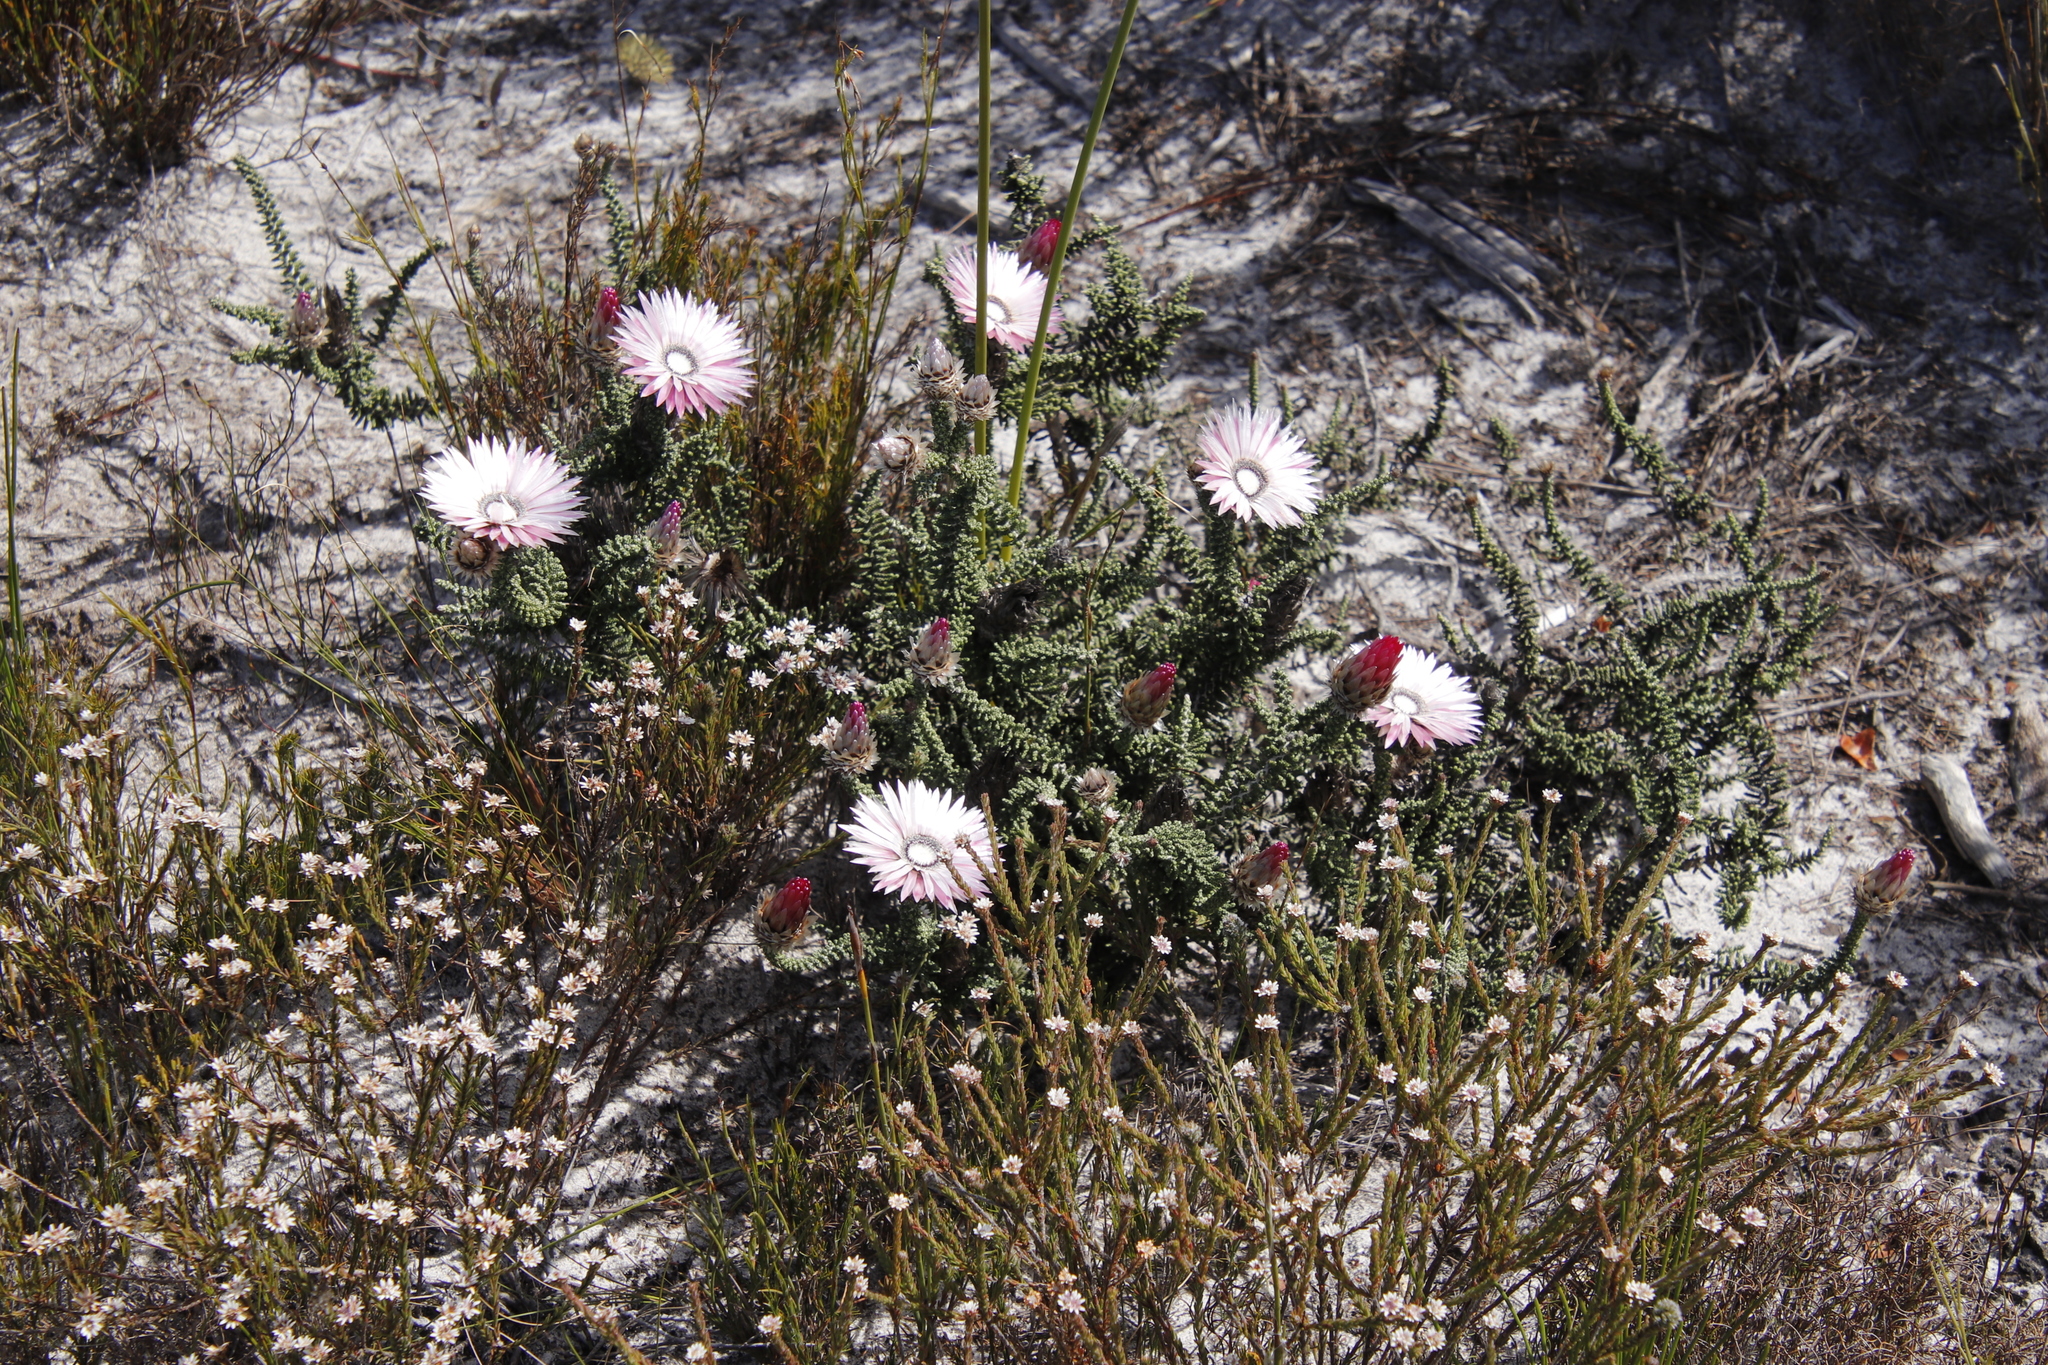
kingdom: Plantae
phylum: Tracheophyta
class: Magnoliopsida
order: Asterales
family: Asteraceae
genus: Phaenocoma
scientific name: Phaenocoma prolifera
